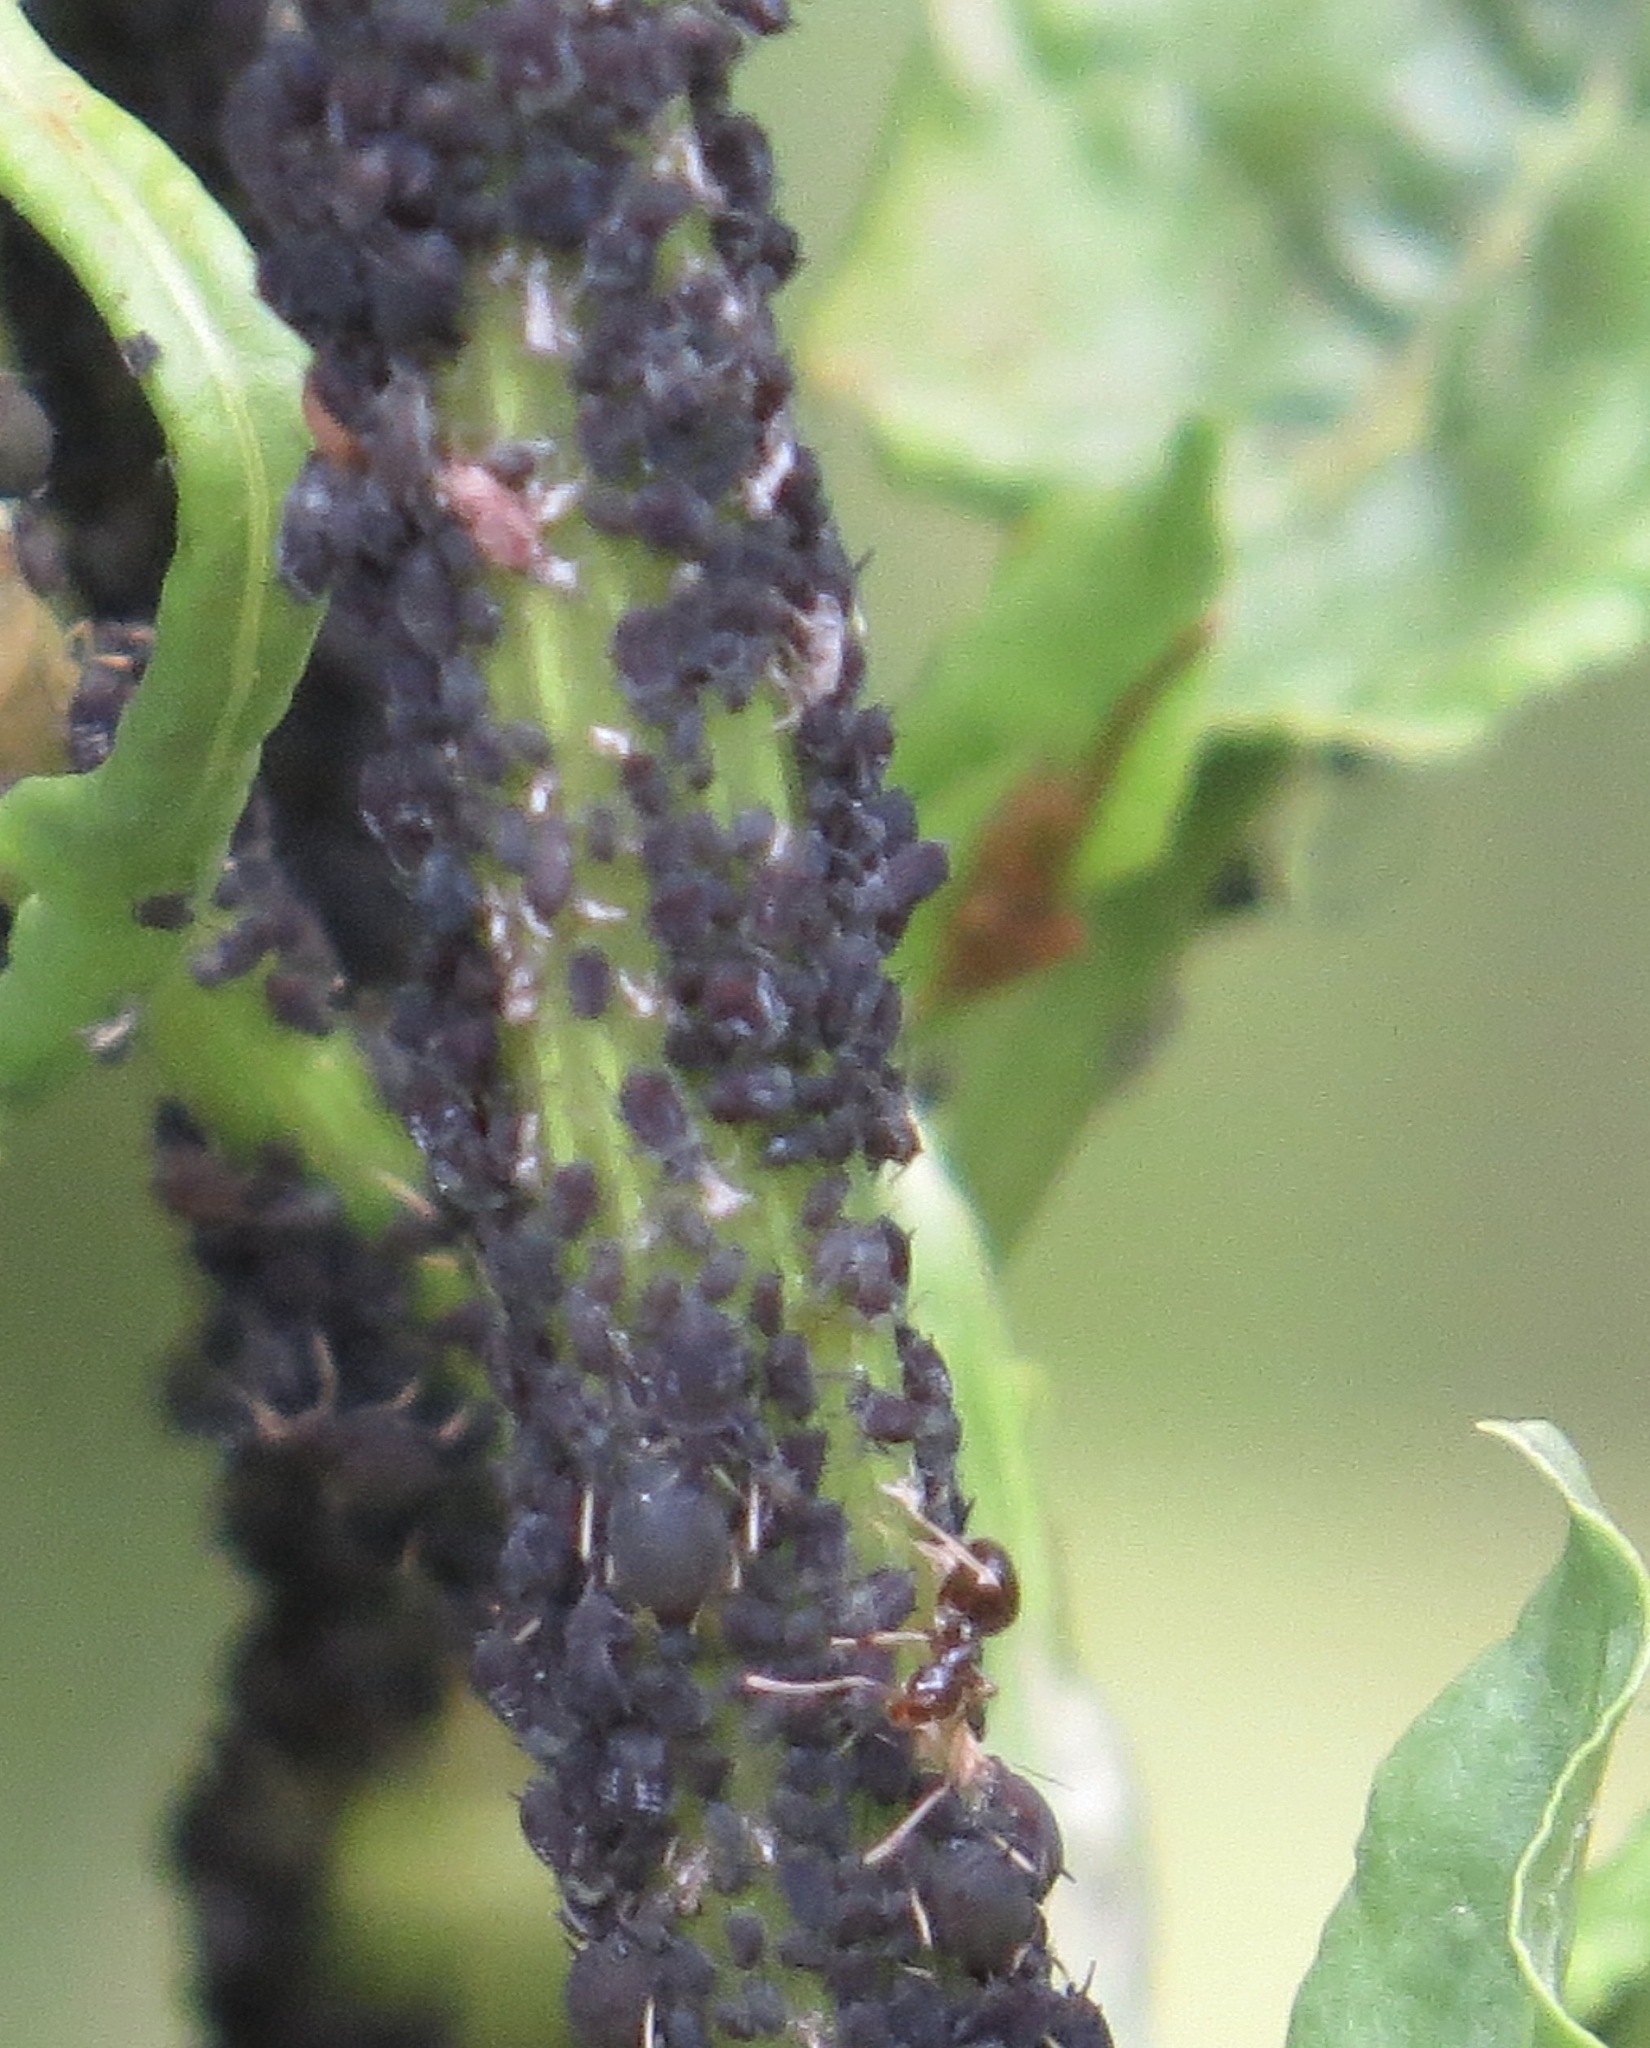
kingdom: Animalia
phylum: Arthropoda
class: Insecta
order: Hymenoptera
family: Formicidae
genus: Prenolepis
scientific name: Prenolepis imparis
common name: Small honey ant
